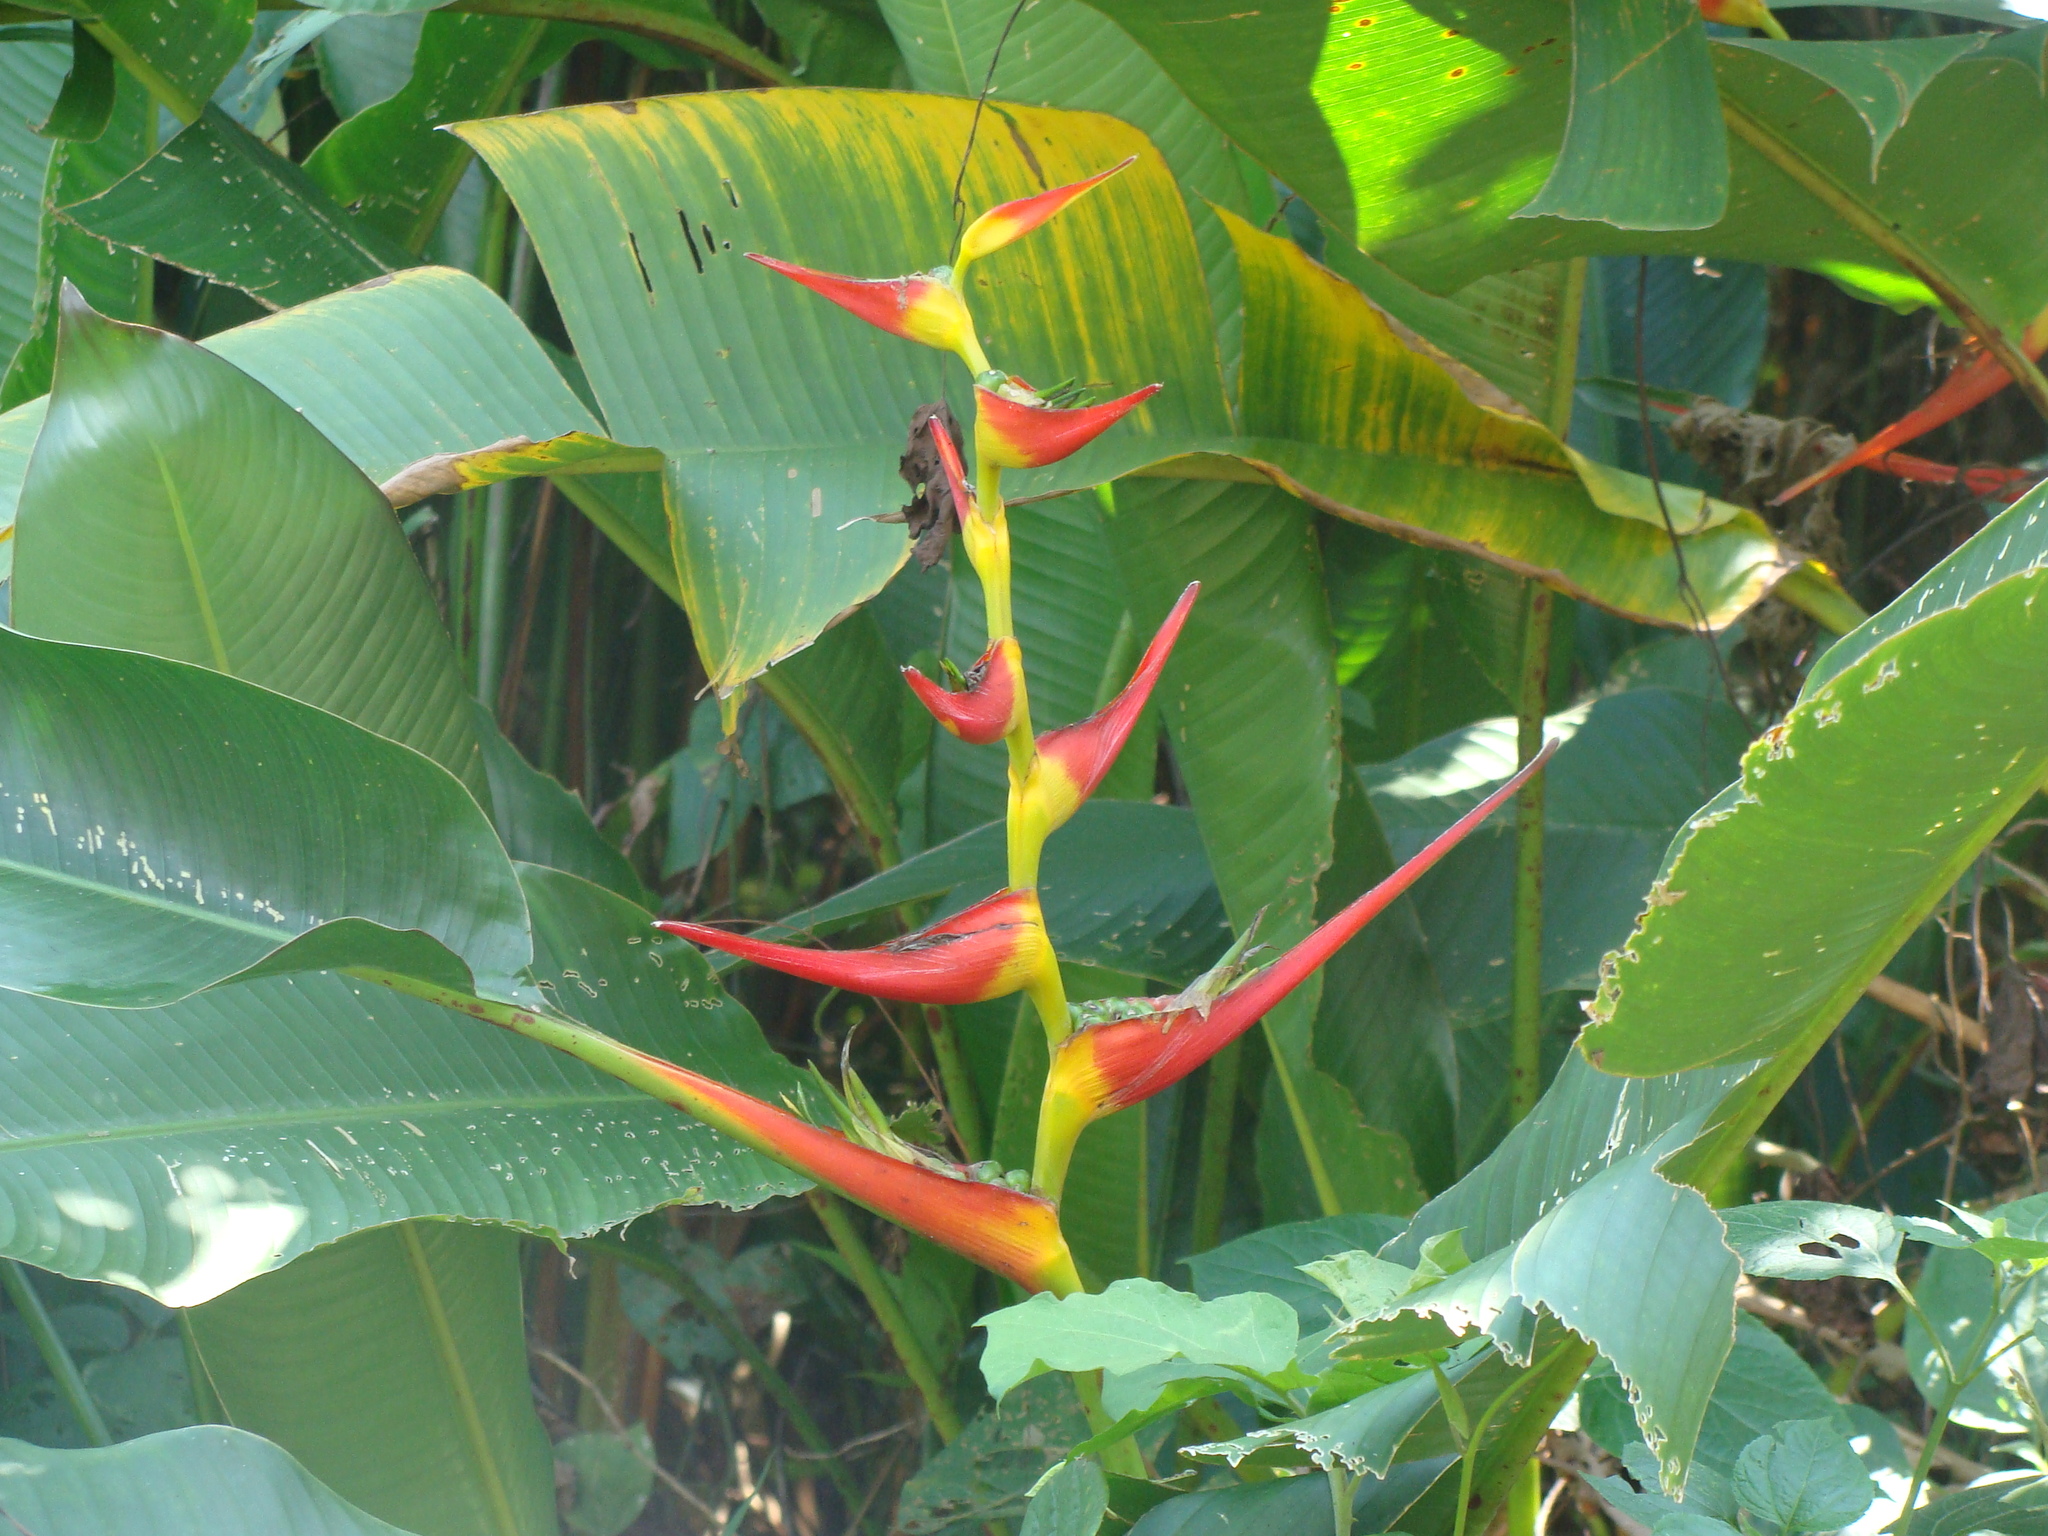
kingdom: Plantae
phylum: Tracheophyta
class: Liliopsida
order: Zingiberales
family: Heliconiaceae
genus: Heliconia
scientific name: Heliconia latispatha
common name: Expanded lobsterclaw
